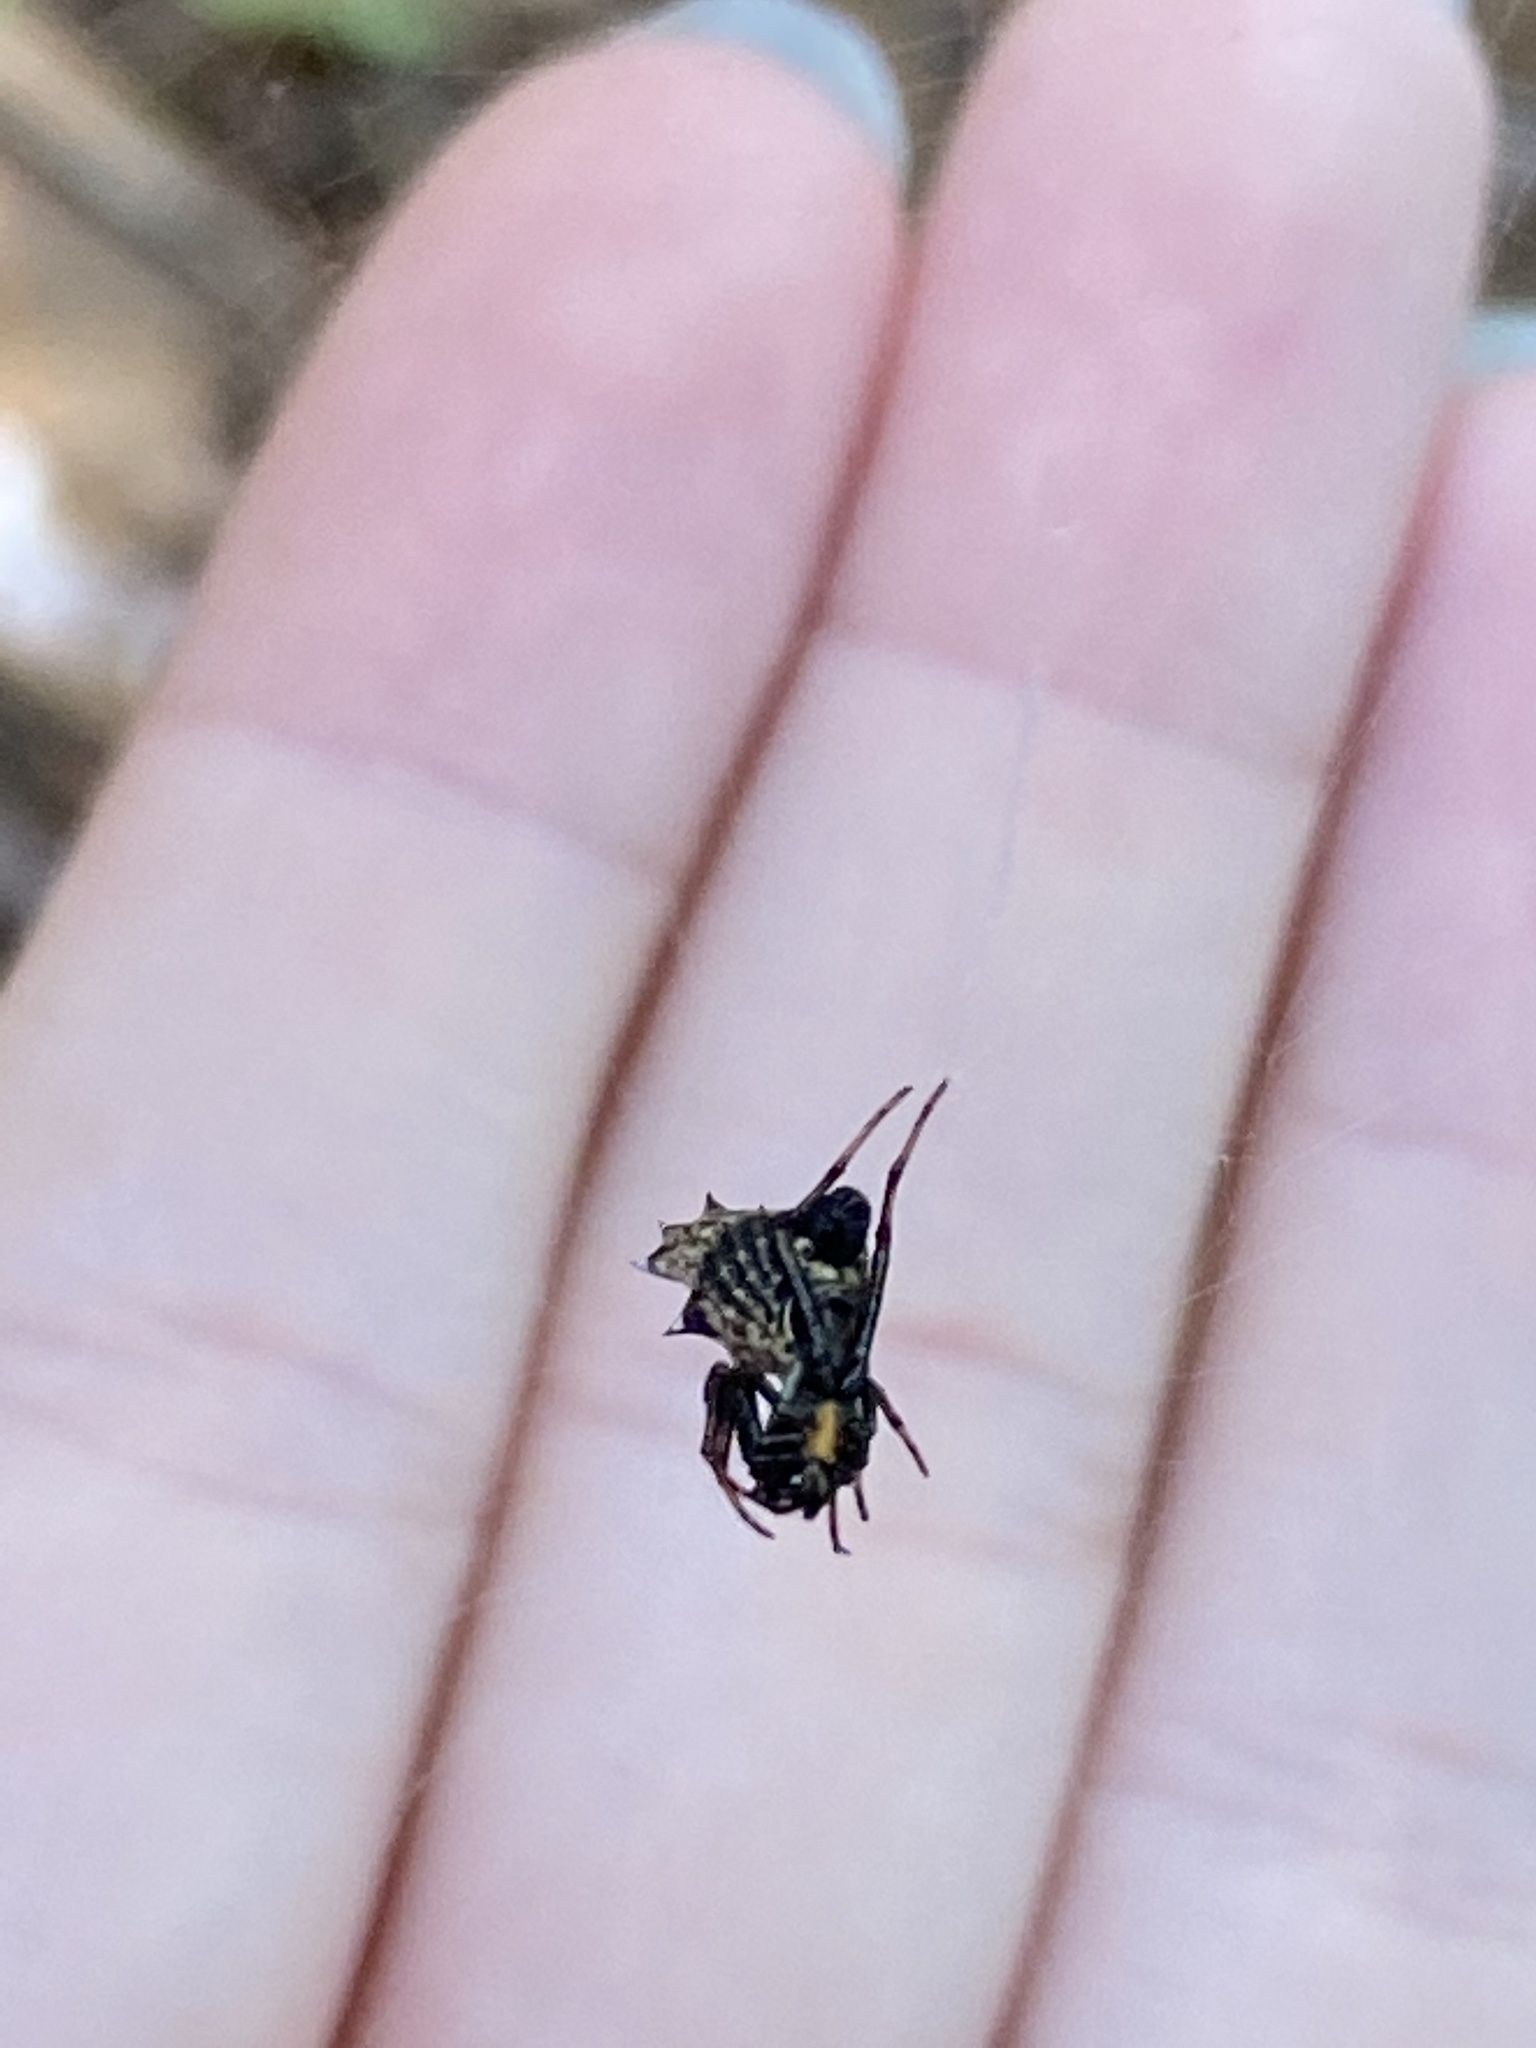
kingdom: Animalia
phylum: Arthropoda
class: Arachnida
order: Araneae
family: Araneidae
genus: Micrathena
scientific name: Micrathena gracilis
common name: Orb weavers
